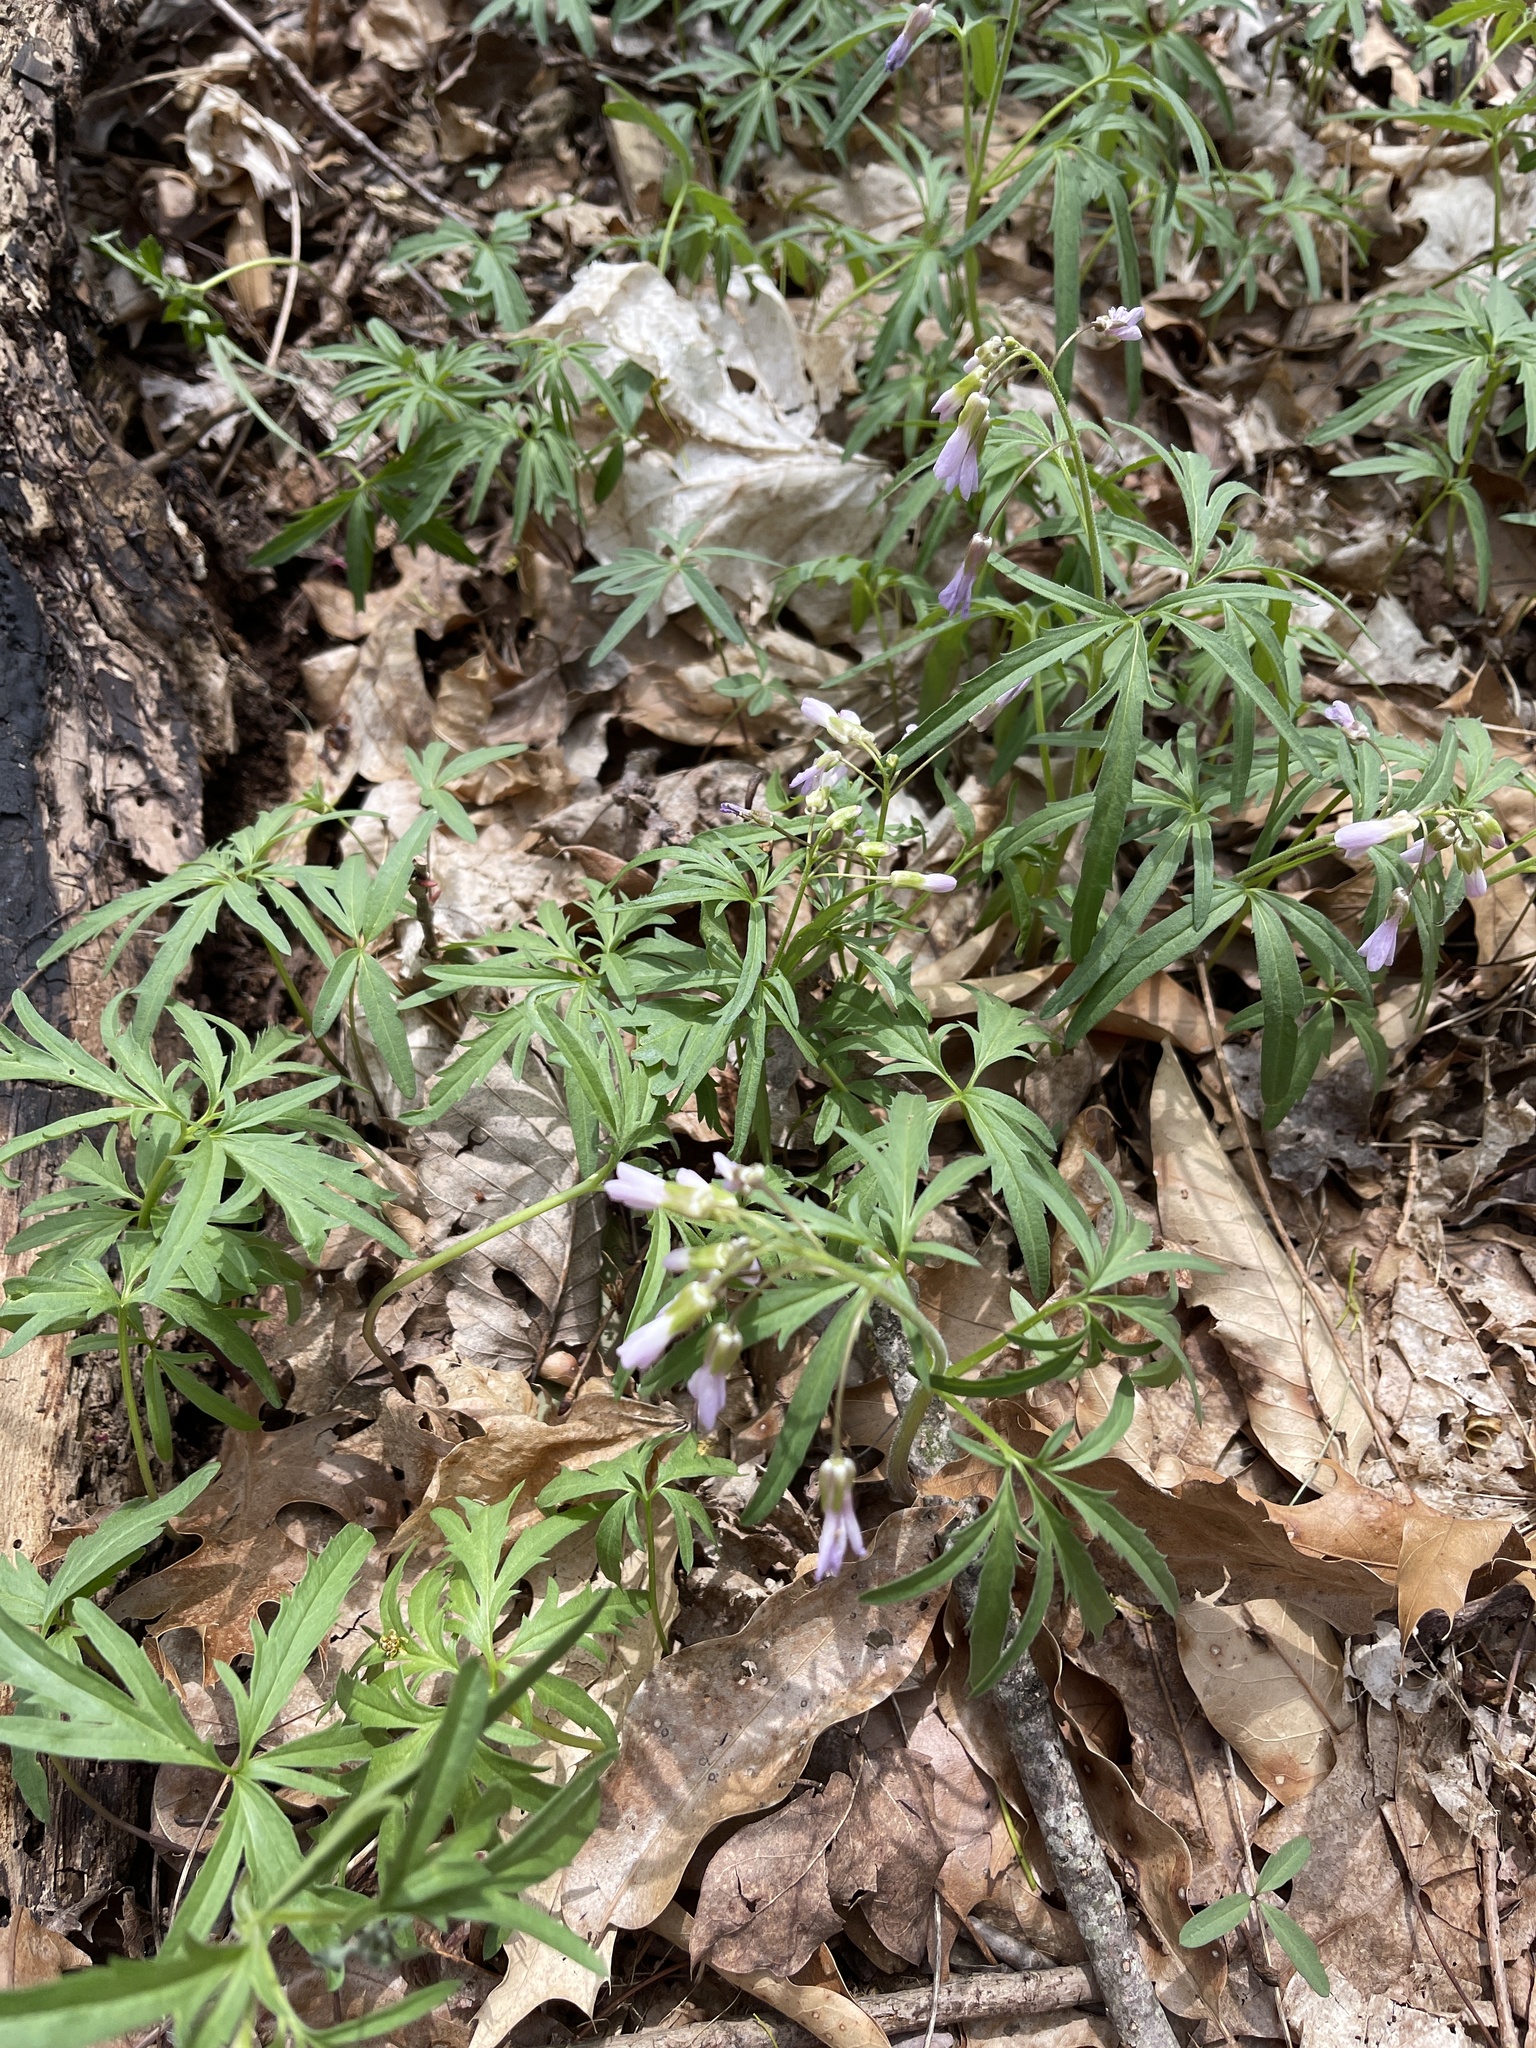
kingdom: Plantae
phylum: Tracheophyta
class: Magnoliopsida
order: Brassicales
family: Brassicaceae
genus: Cardamine
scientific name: Cardamine concatenata
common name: Cut-leaf toothcup
